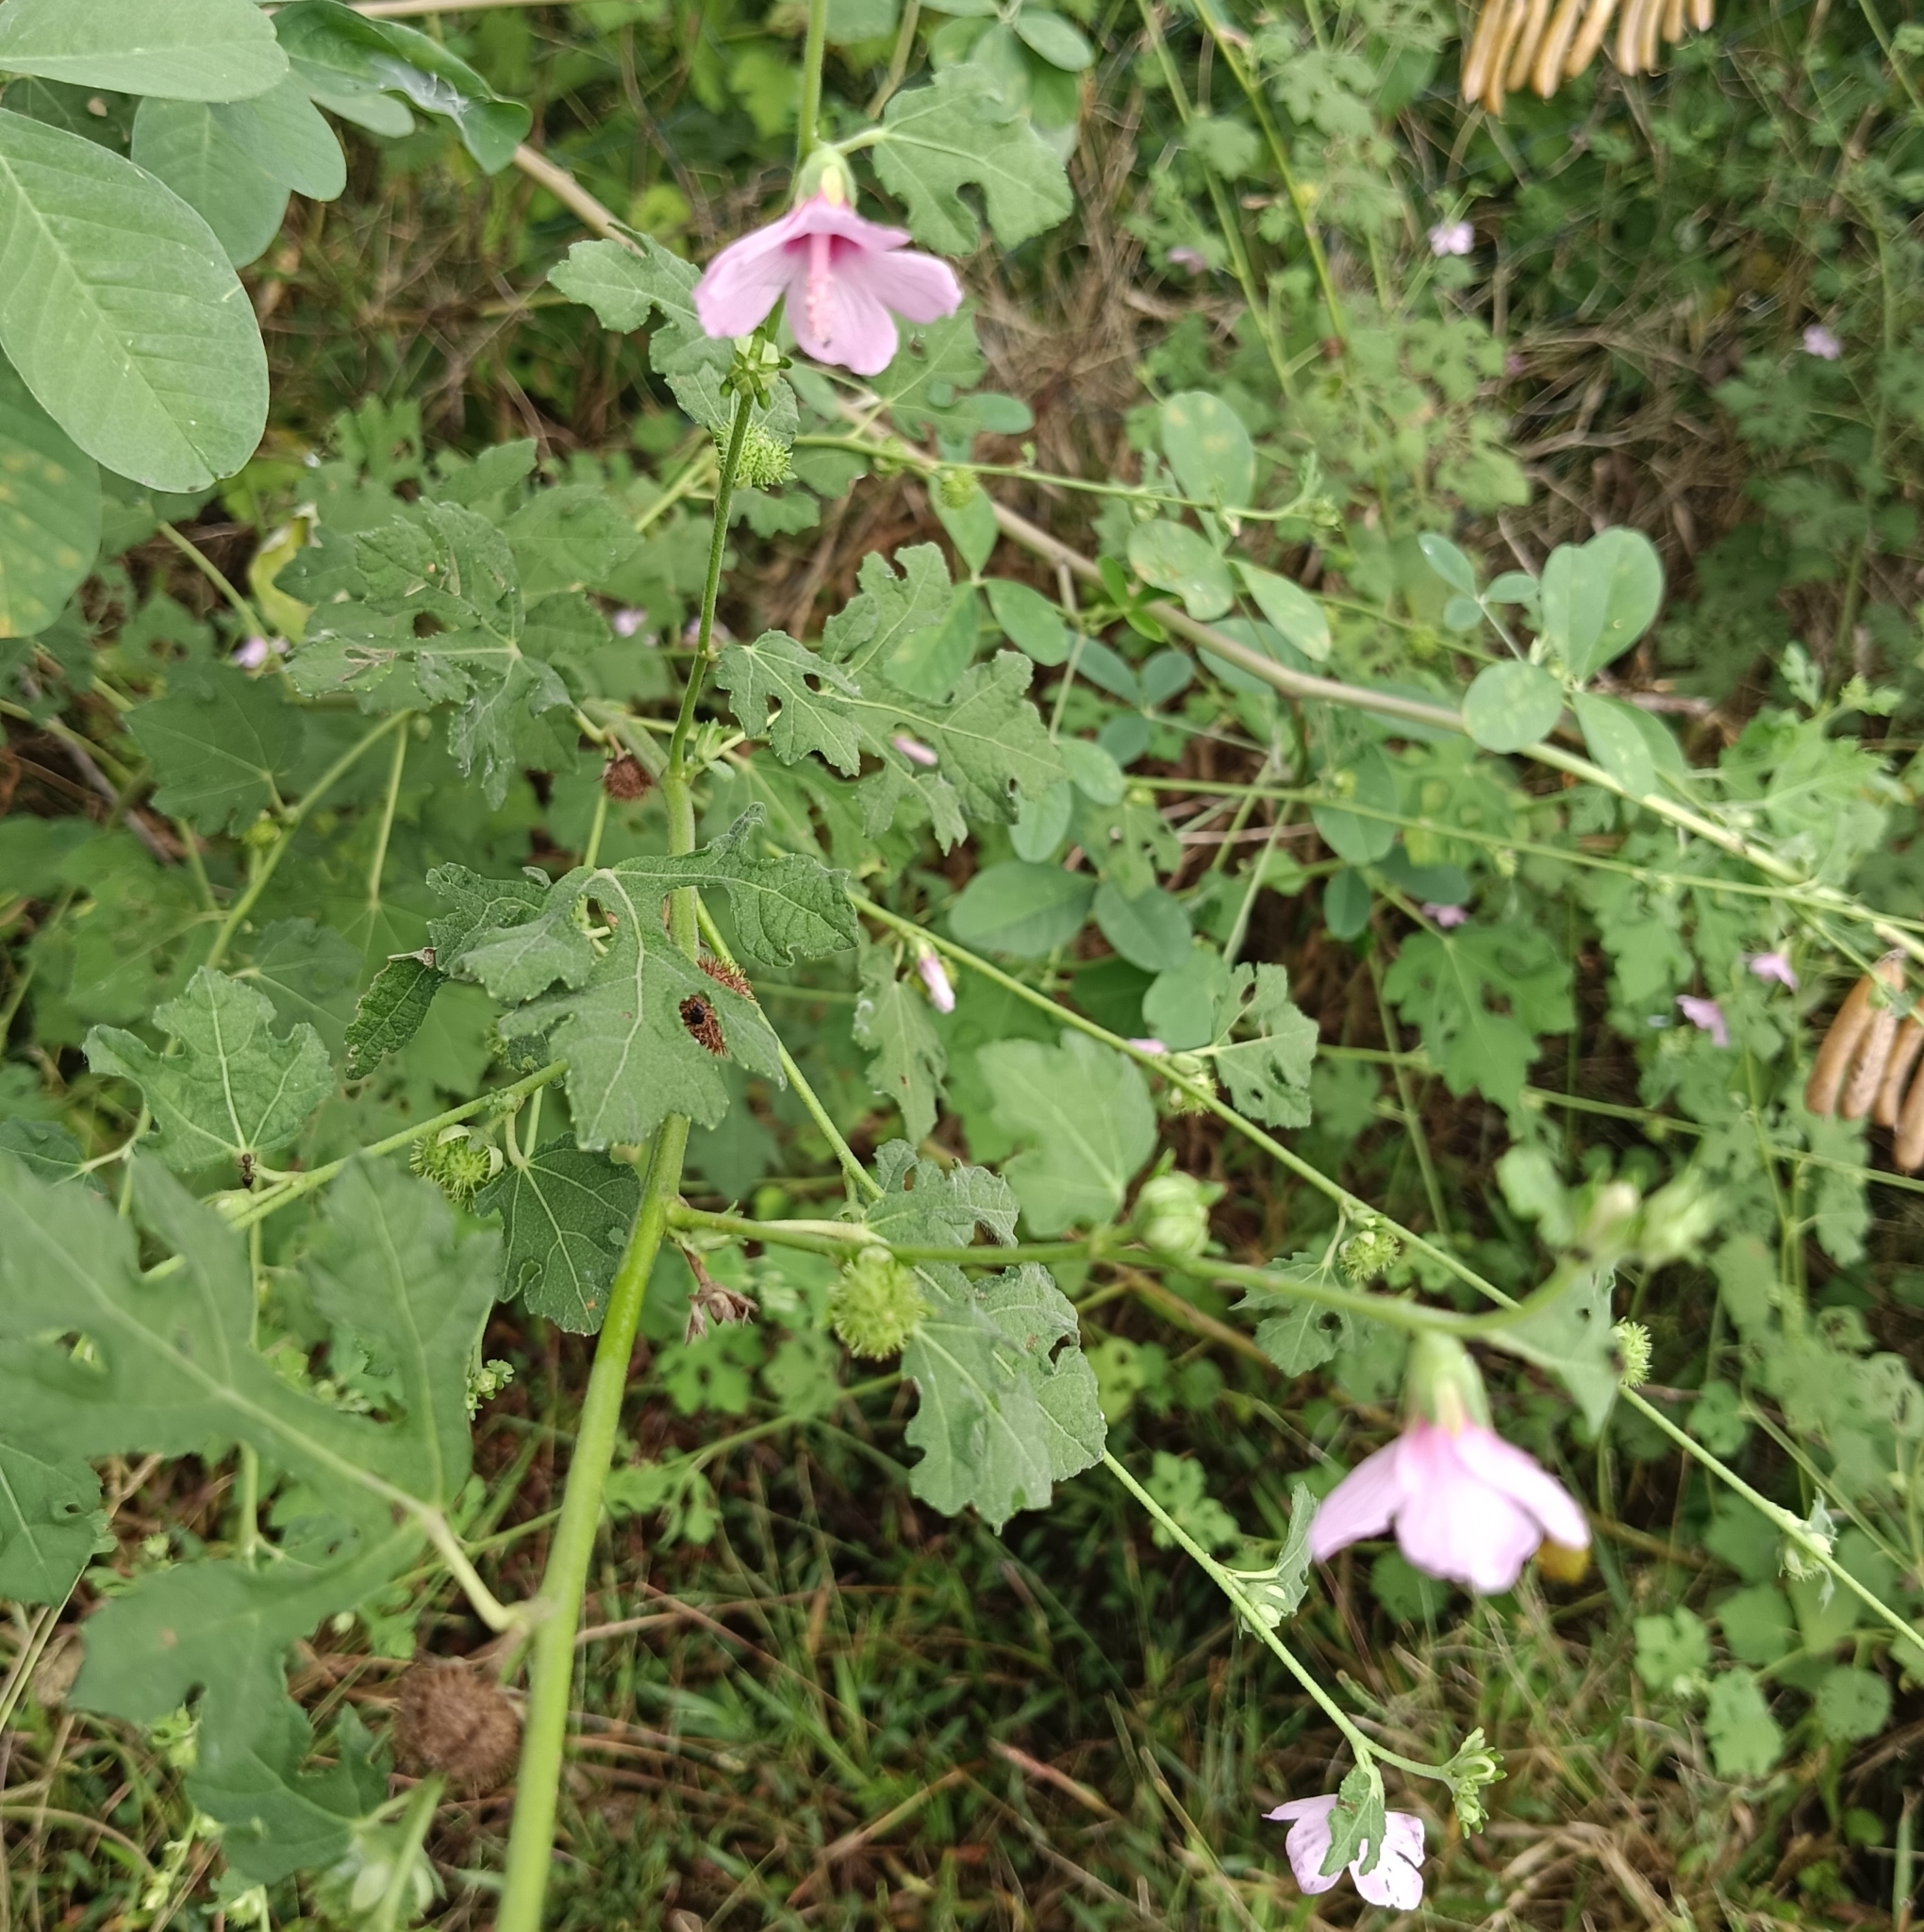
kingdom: Plantae
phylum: Tracheophyta
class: Magnoliopsida
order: Malvales
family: Malvaceae
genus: Urena
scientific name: Urena procumbens
